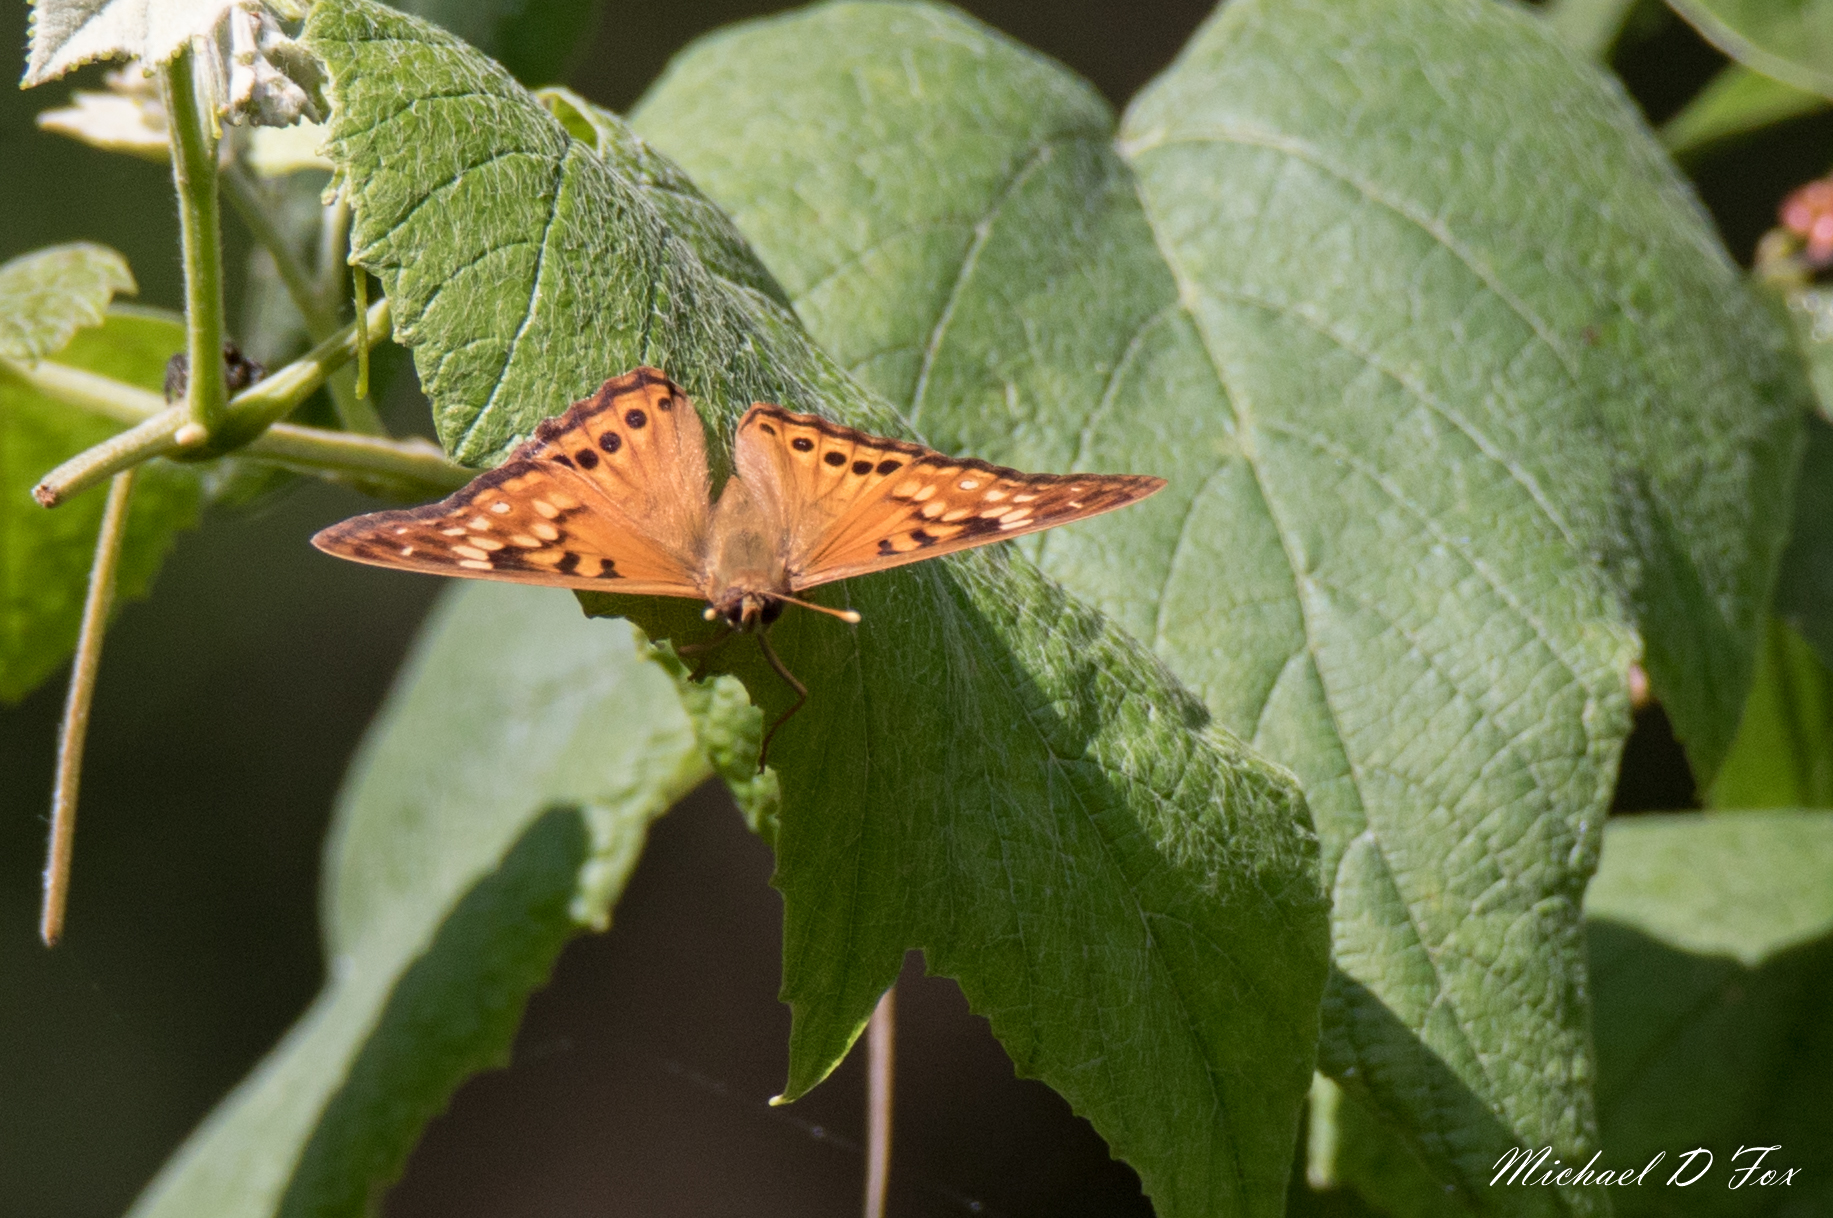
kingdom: Animalia
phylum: Arthropoda
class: Insecta
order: Lepidoptera
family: Nymphalidae
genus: Asterocampa
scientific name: Asterocampa clyton
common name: Tawny emperor
